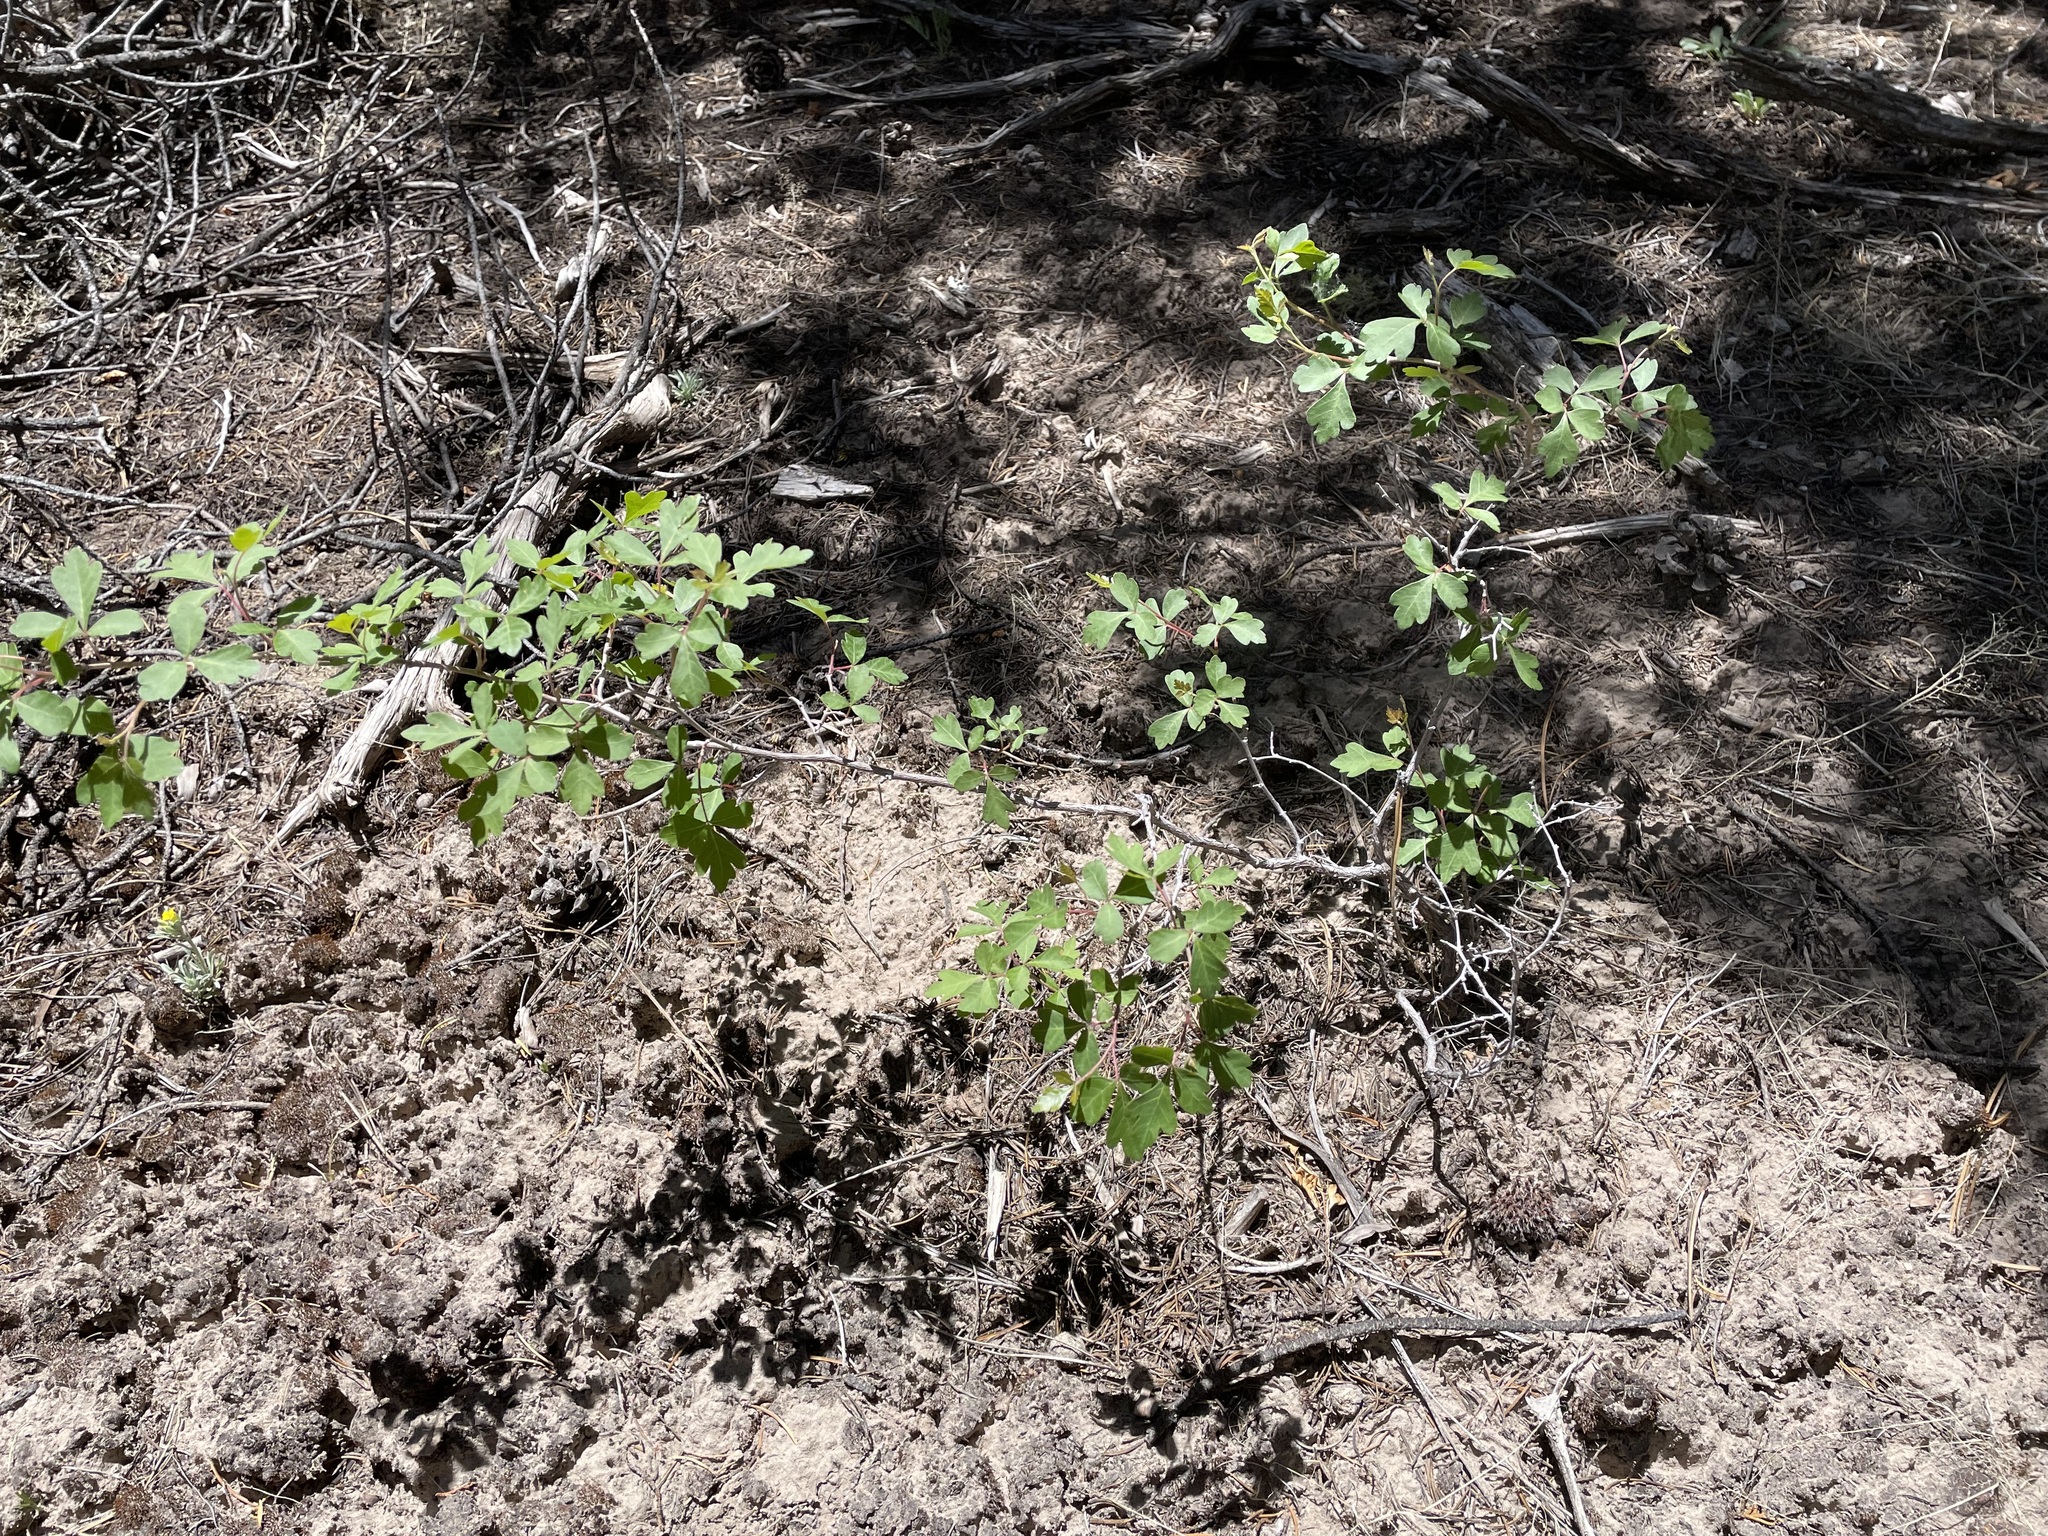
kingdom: Plantae
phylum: Tracheophyta
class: Magnoliopsida
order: Sapindales
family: Anacardiaceae
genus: Rhus
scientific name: Rhus trilobata
